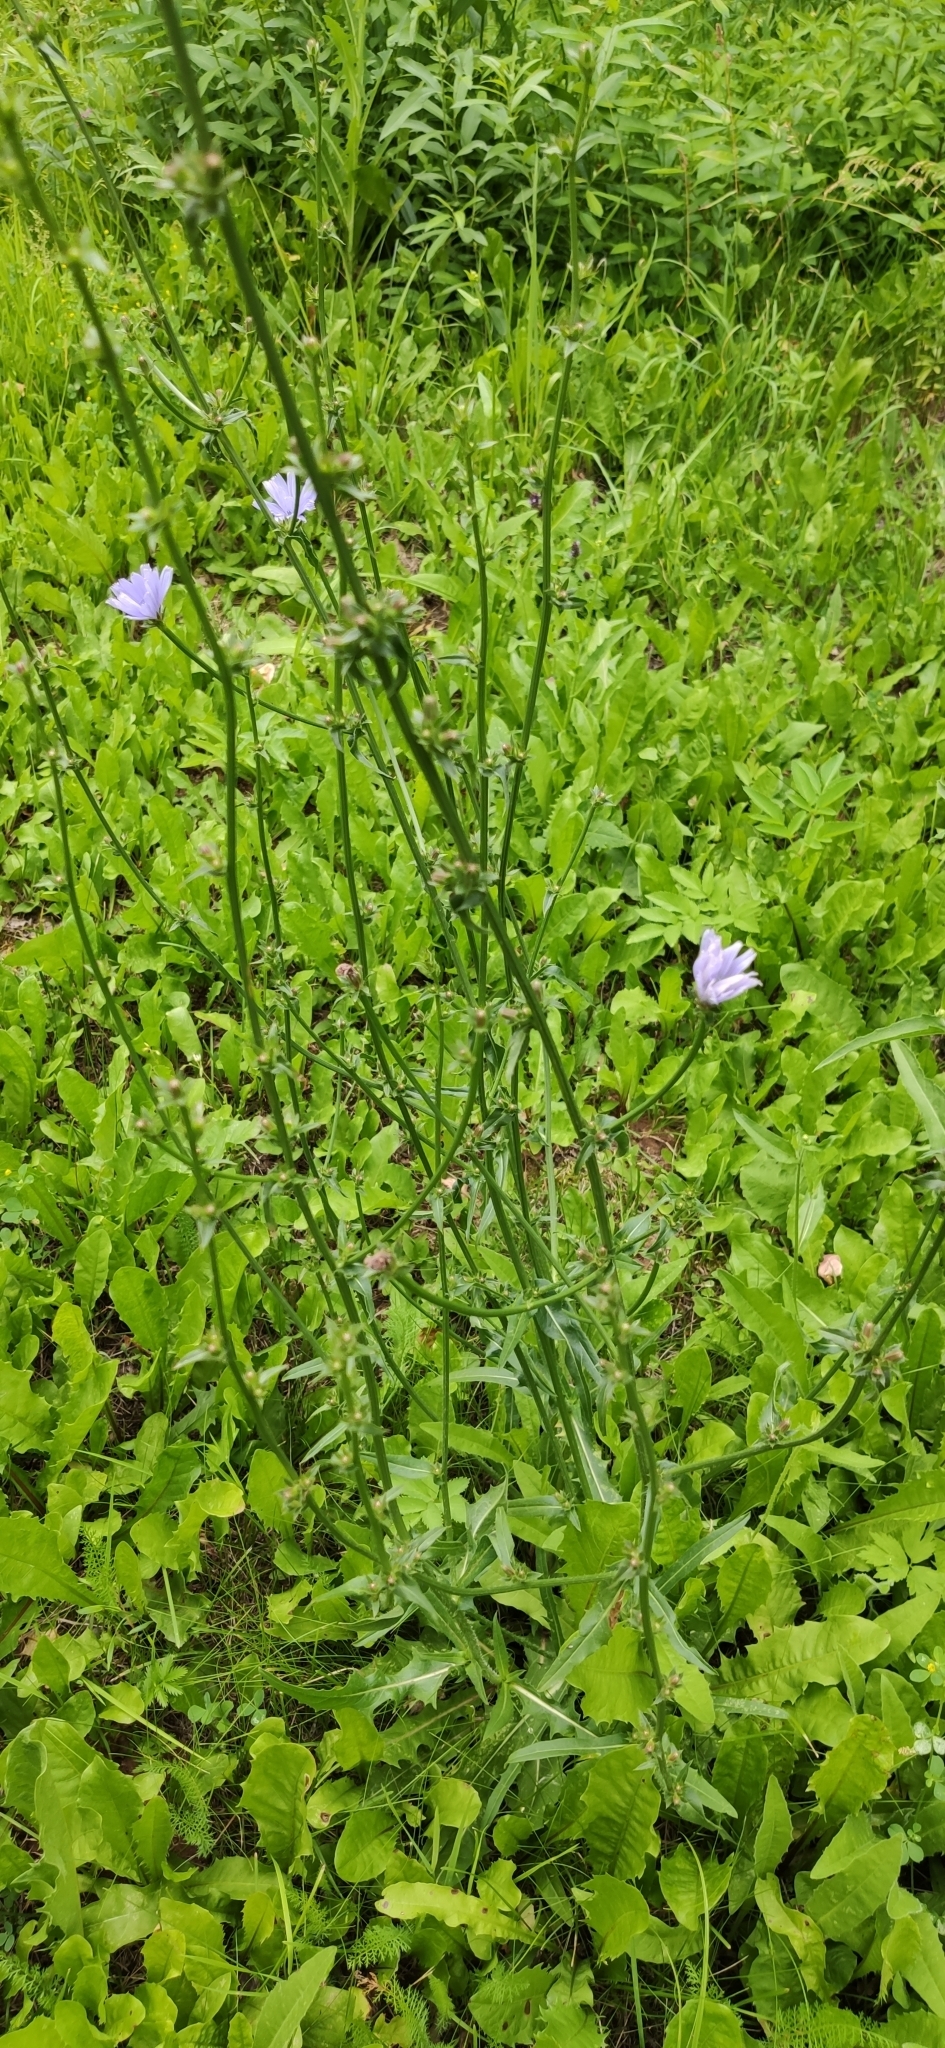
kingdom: Plantae
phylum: Tracheophyta
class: Magnoliopsida
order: Asterales
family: Asteraceae
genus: Cichorium
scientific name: Cichorium intybus
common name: Chicory
